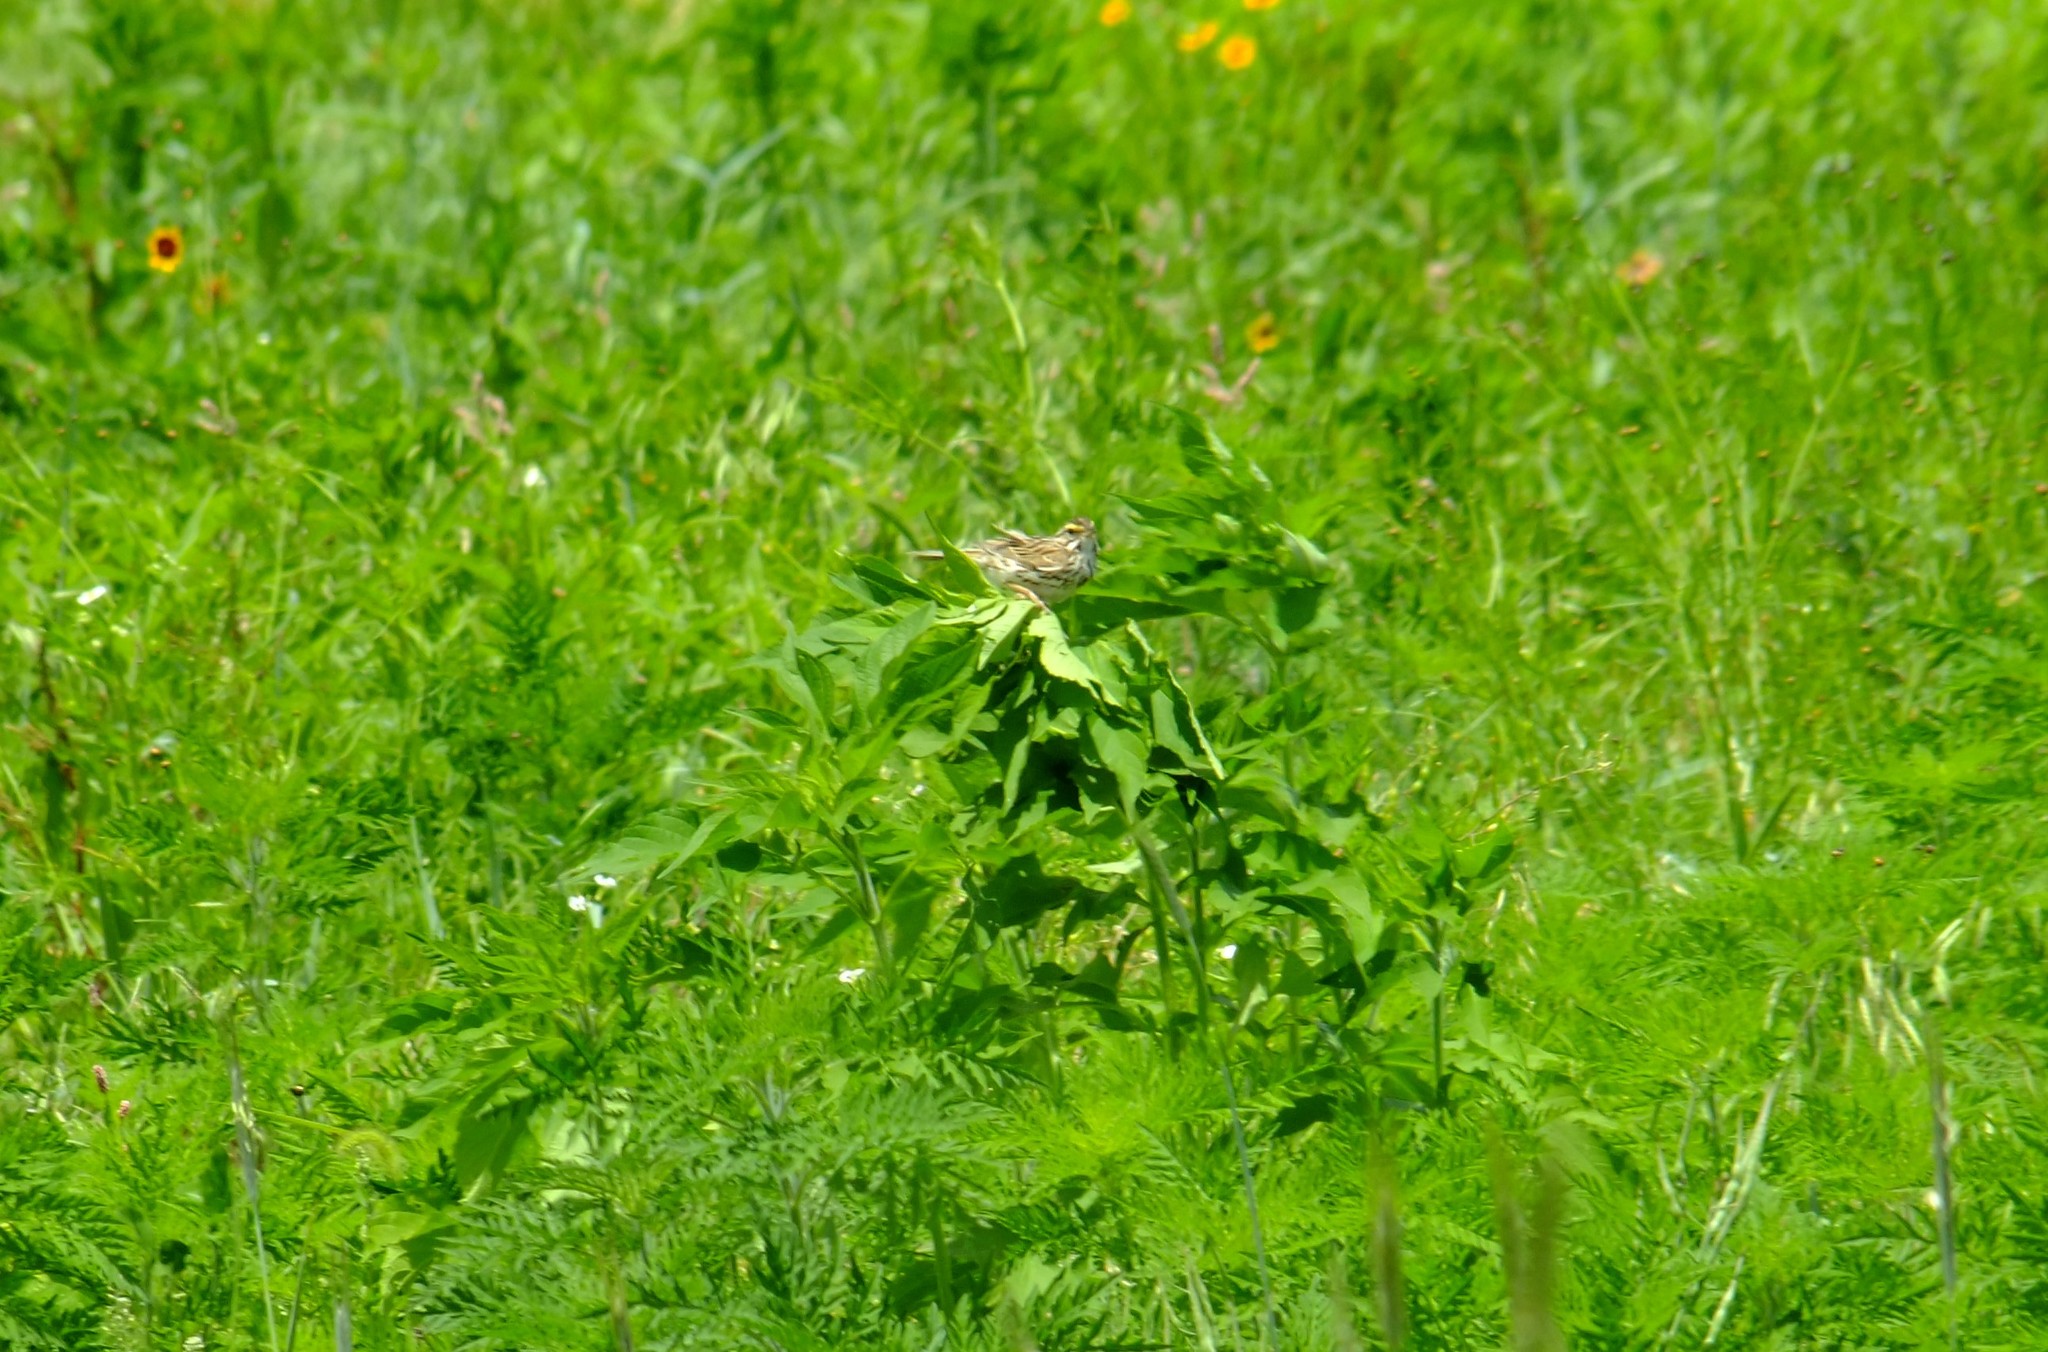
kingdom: Animalia
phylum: Chordata
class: Aves
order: Passeriformes
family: Passerellidae
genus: Passerculus
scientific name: Passerculus sandwichensis
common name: Savannah sparrow
